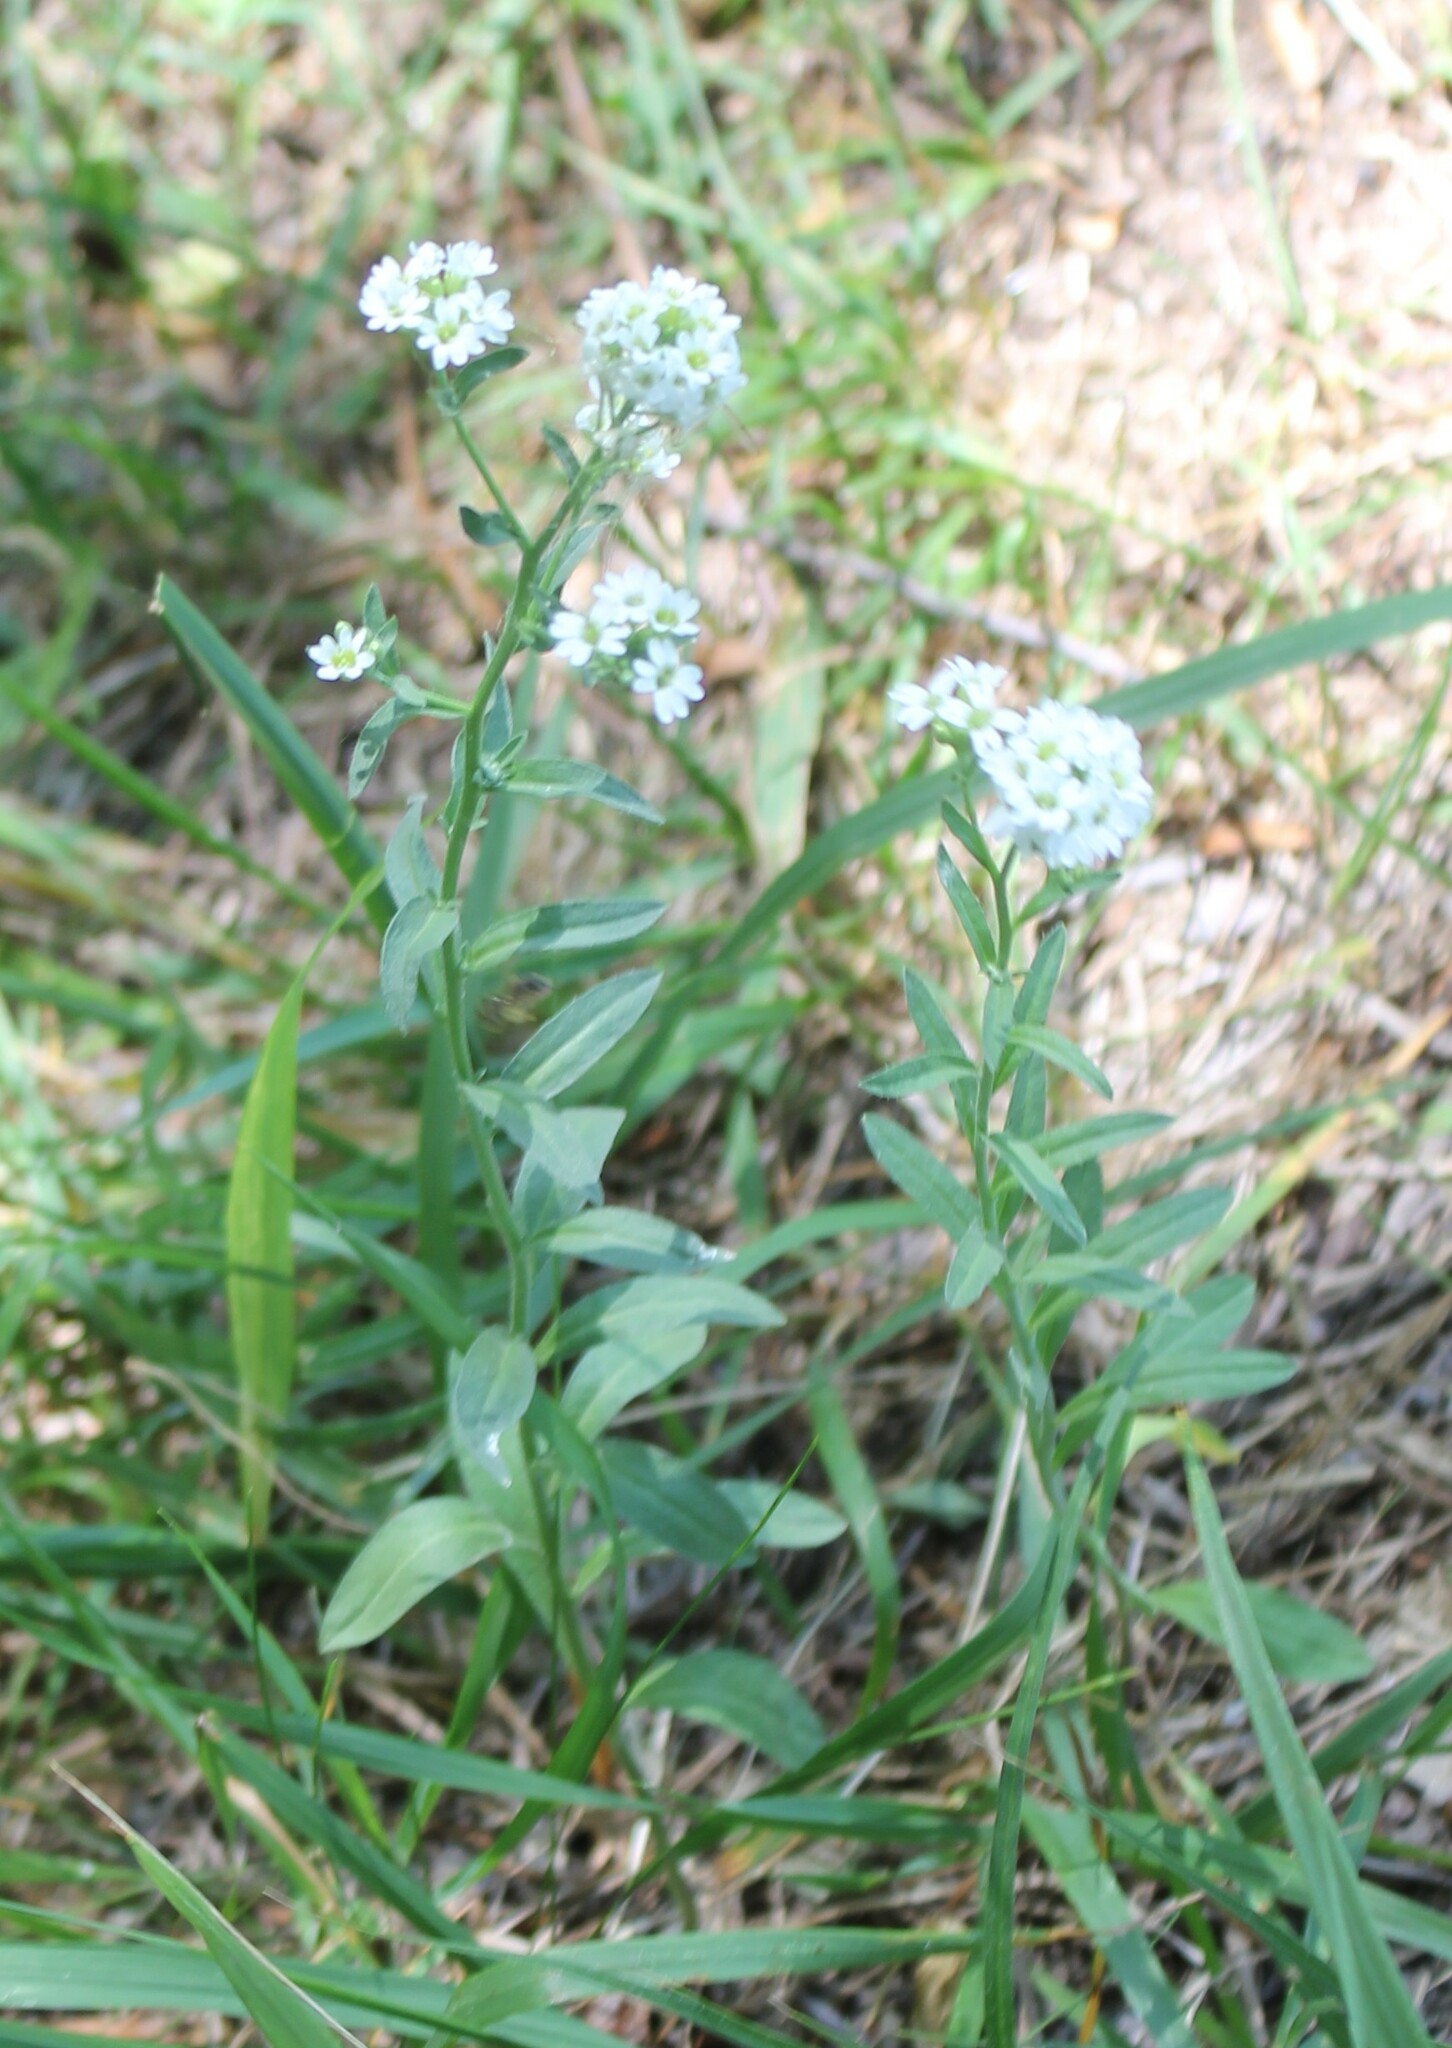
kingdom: Plantae
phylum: Tracheophyta
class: Magnoliopsida
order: Brassicales
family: Brassicaceae
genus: Berteroa
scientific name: Berteroa incana
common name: Hoary alison
